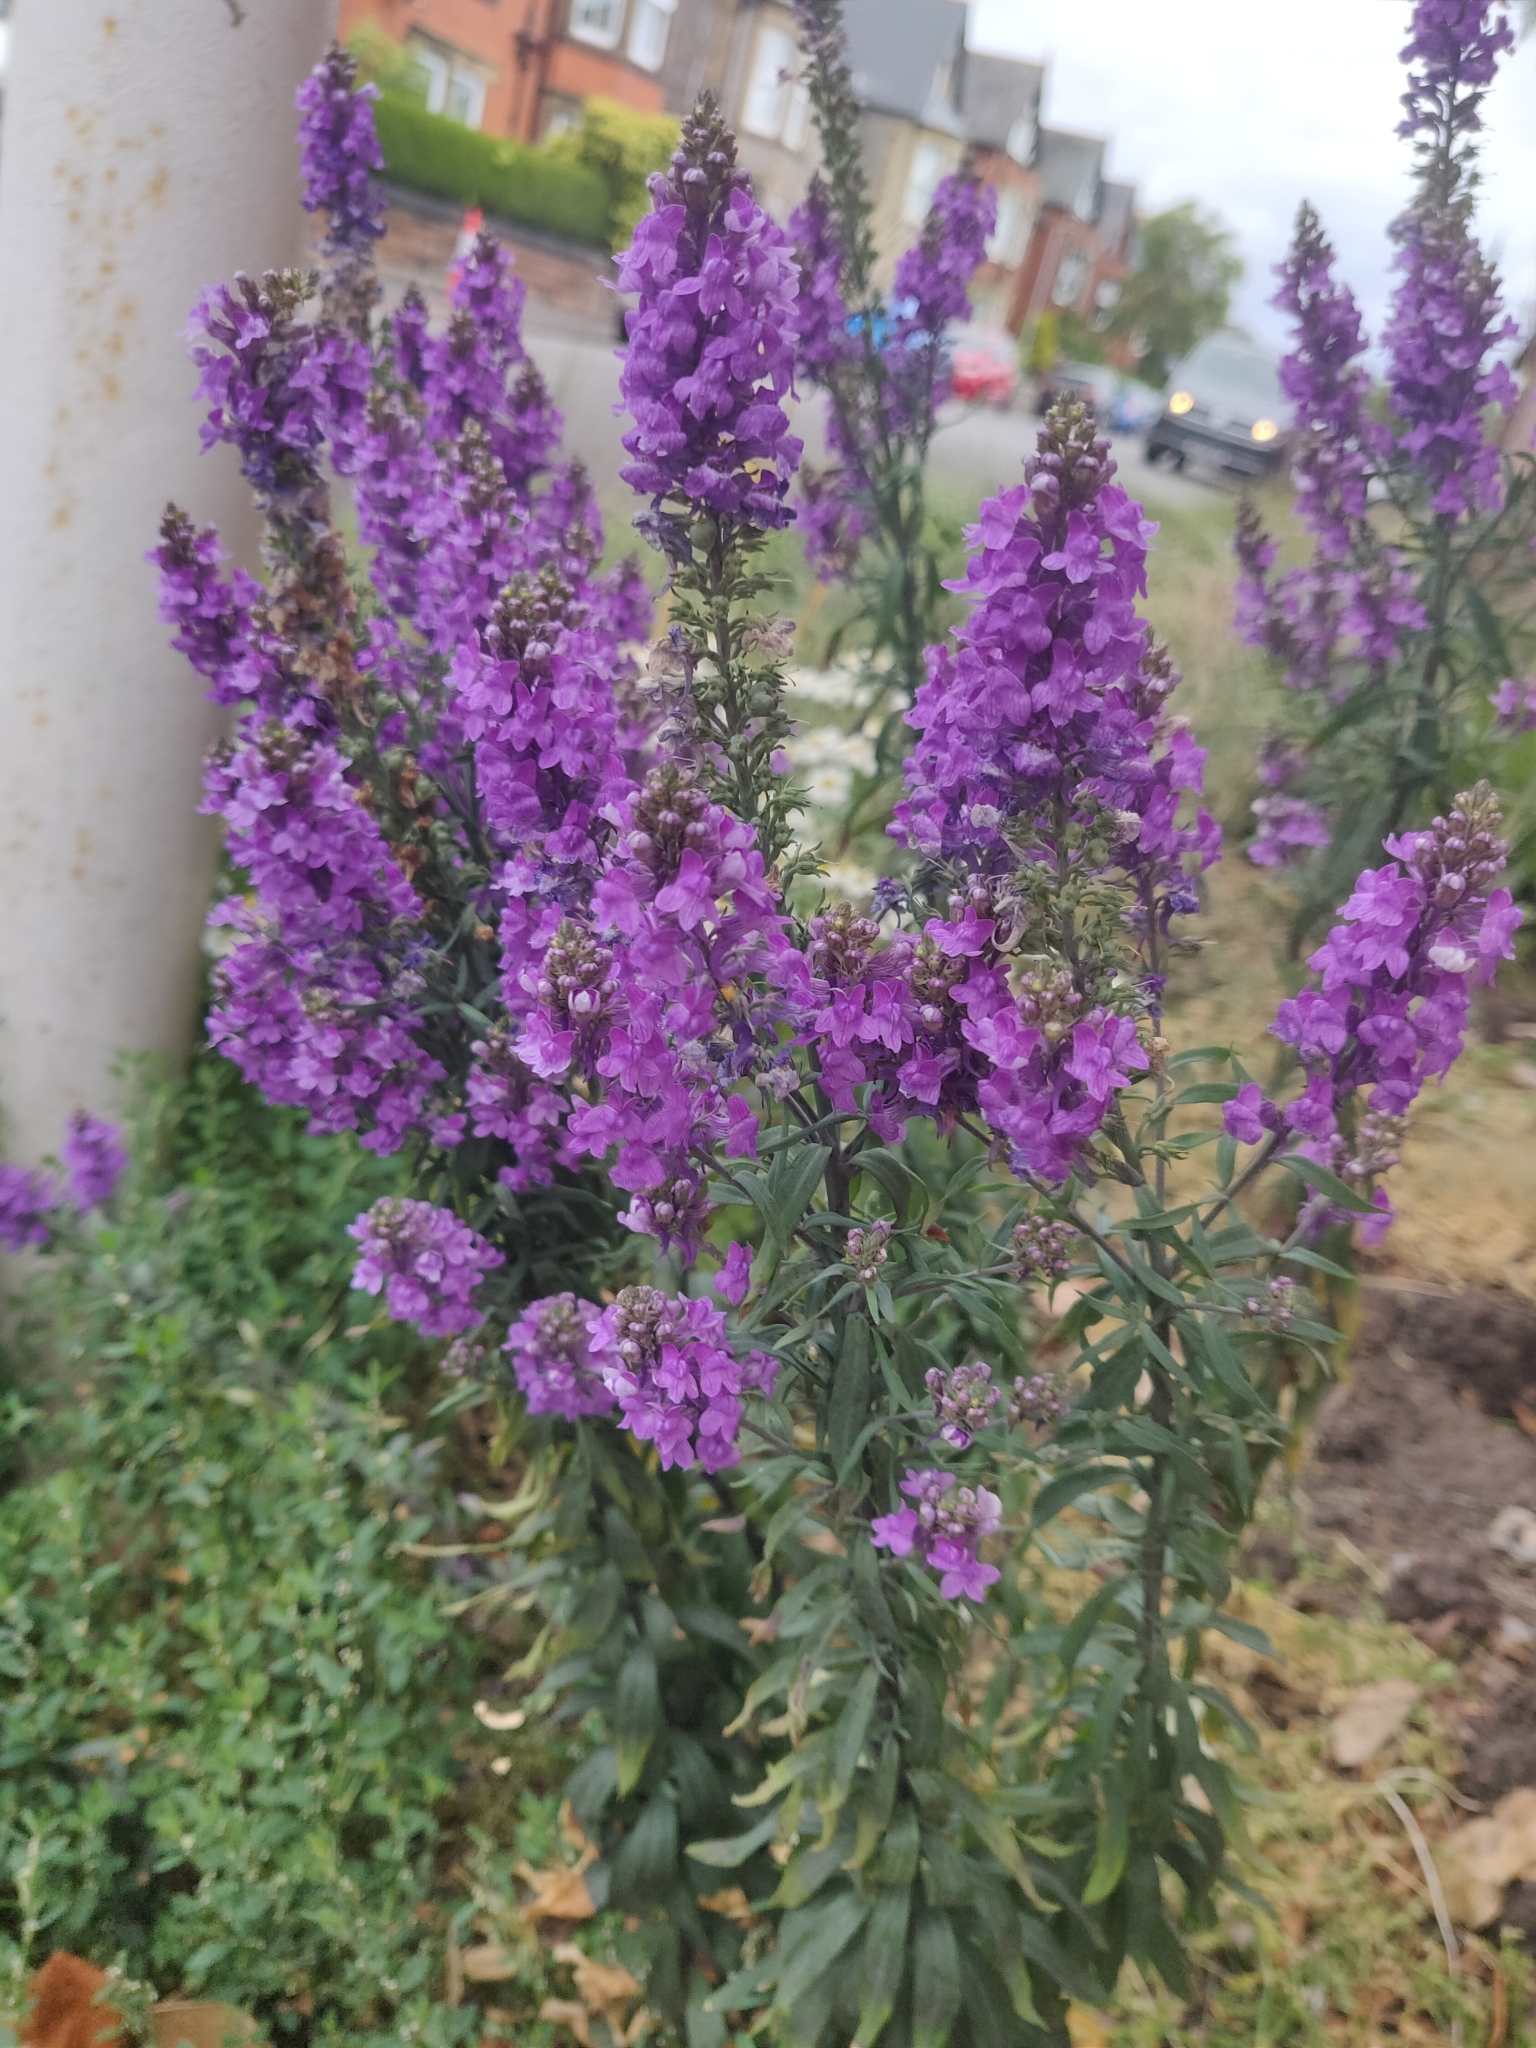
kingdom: Plantae
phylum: Tracheophyta
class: Magnoliopsida
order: Lamiales
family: Plantaginaceae
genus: Linaria
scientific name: Linaria purpurea
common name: Purple toadflax
